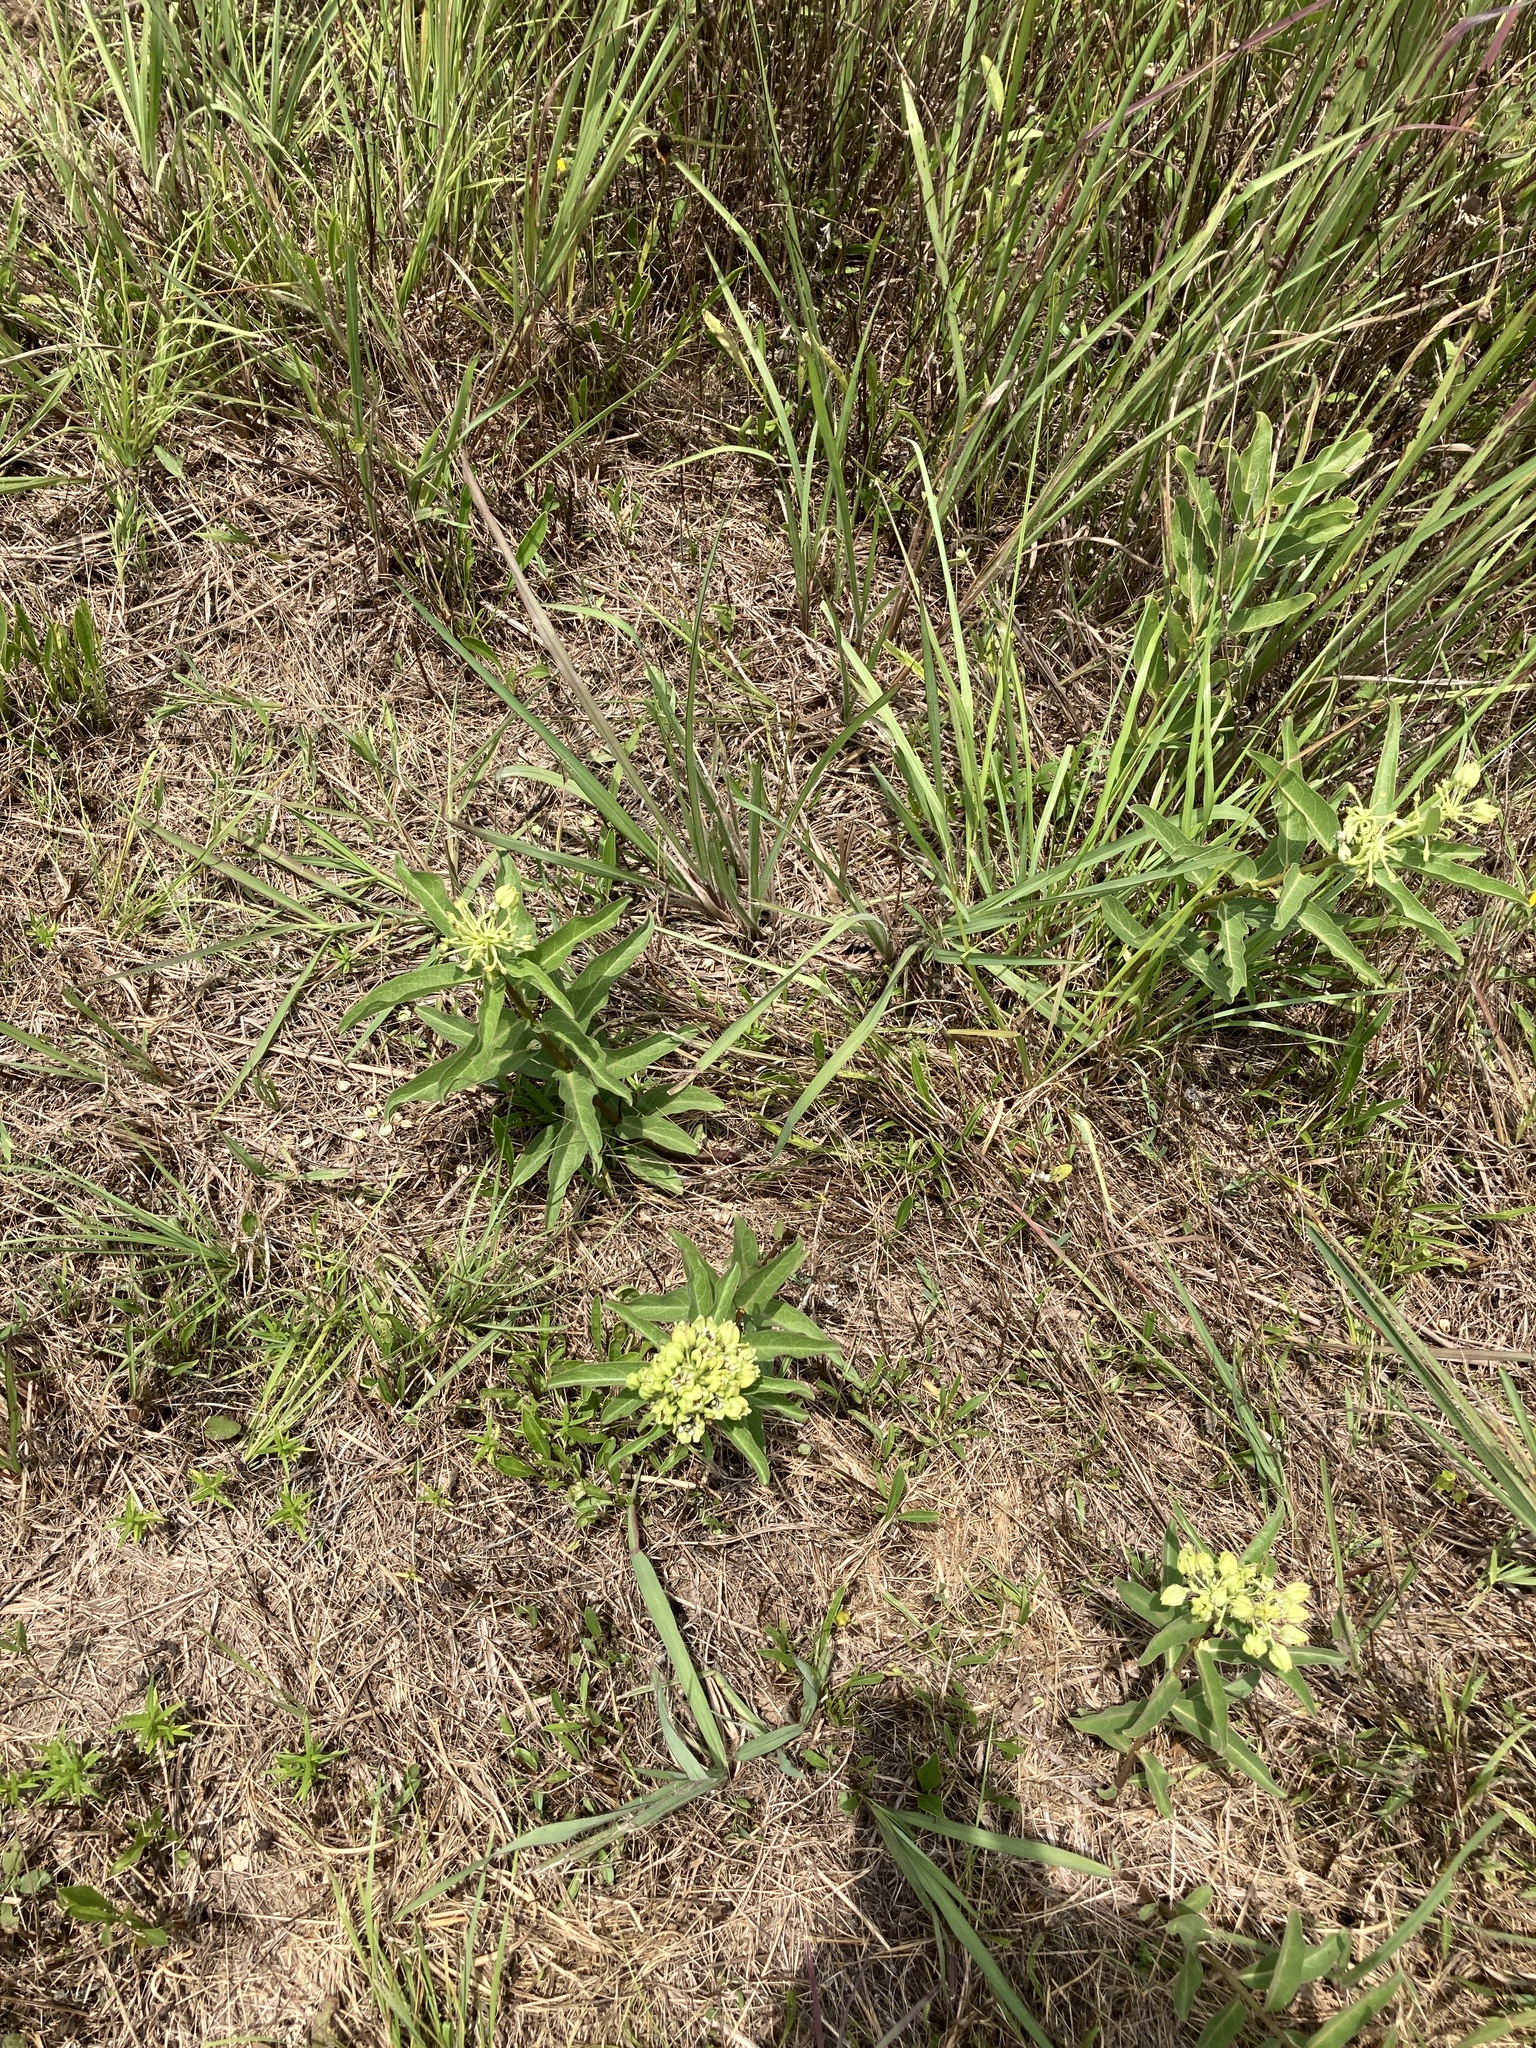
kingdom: Plantae
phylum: Tracheophyta
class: Magnoliopsida
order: Gentianales
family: Apocynaceae
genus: Asclepias
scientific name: Asclepias viridis
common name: Antelope-horns
